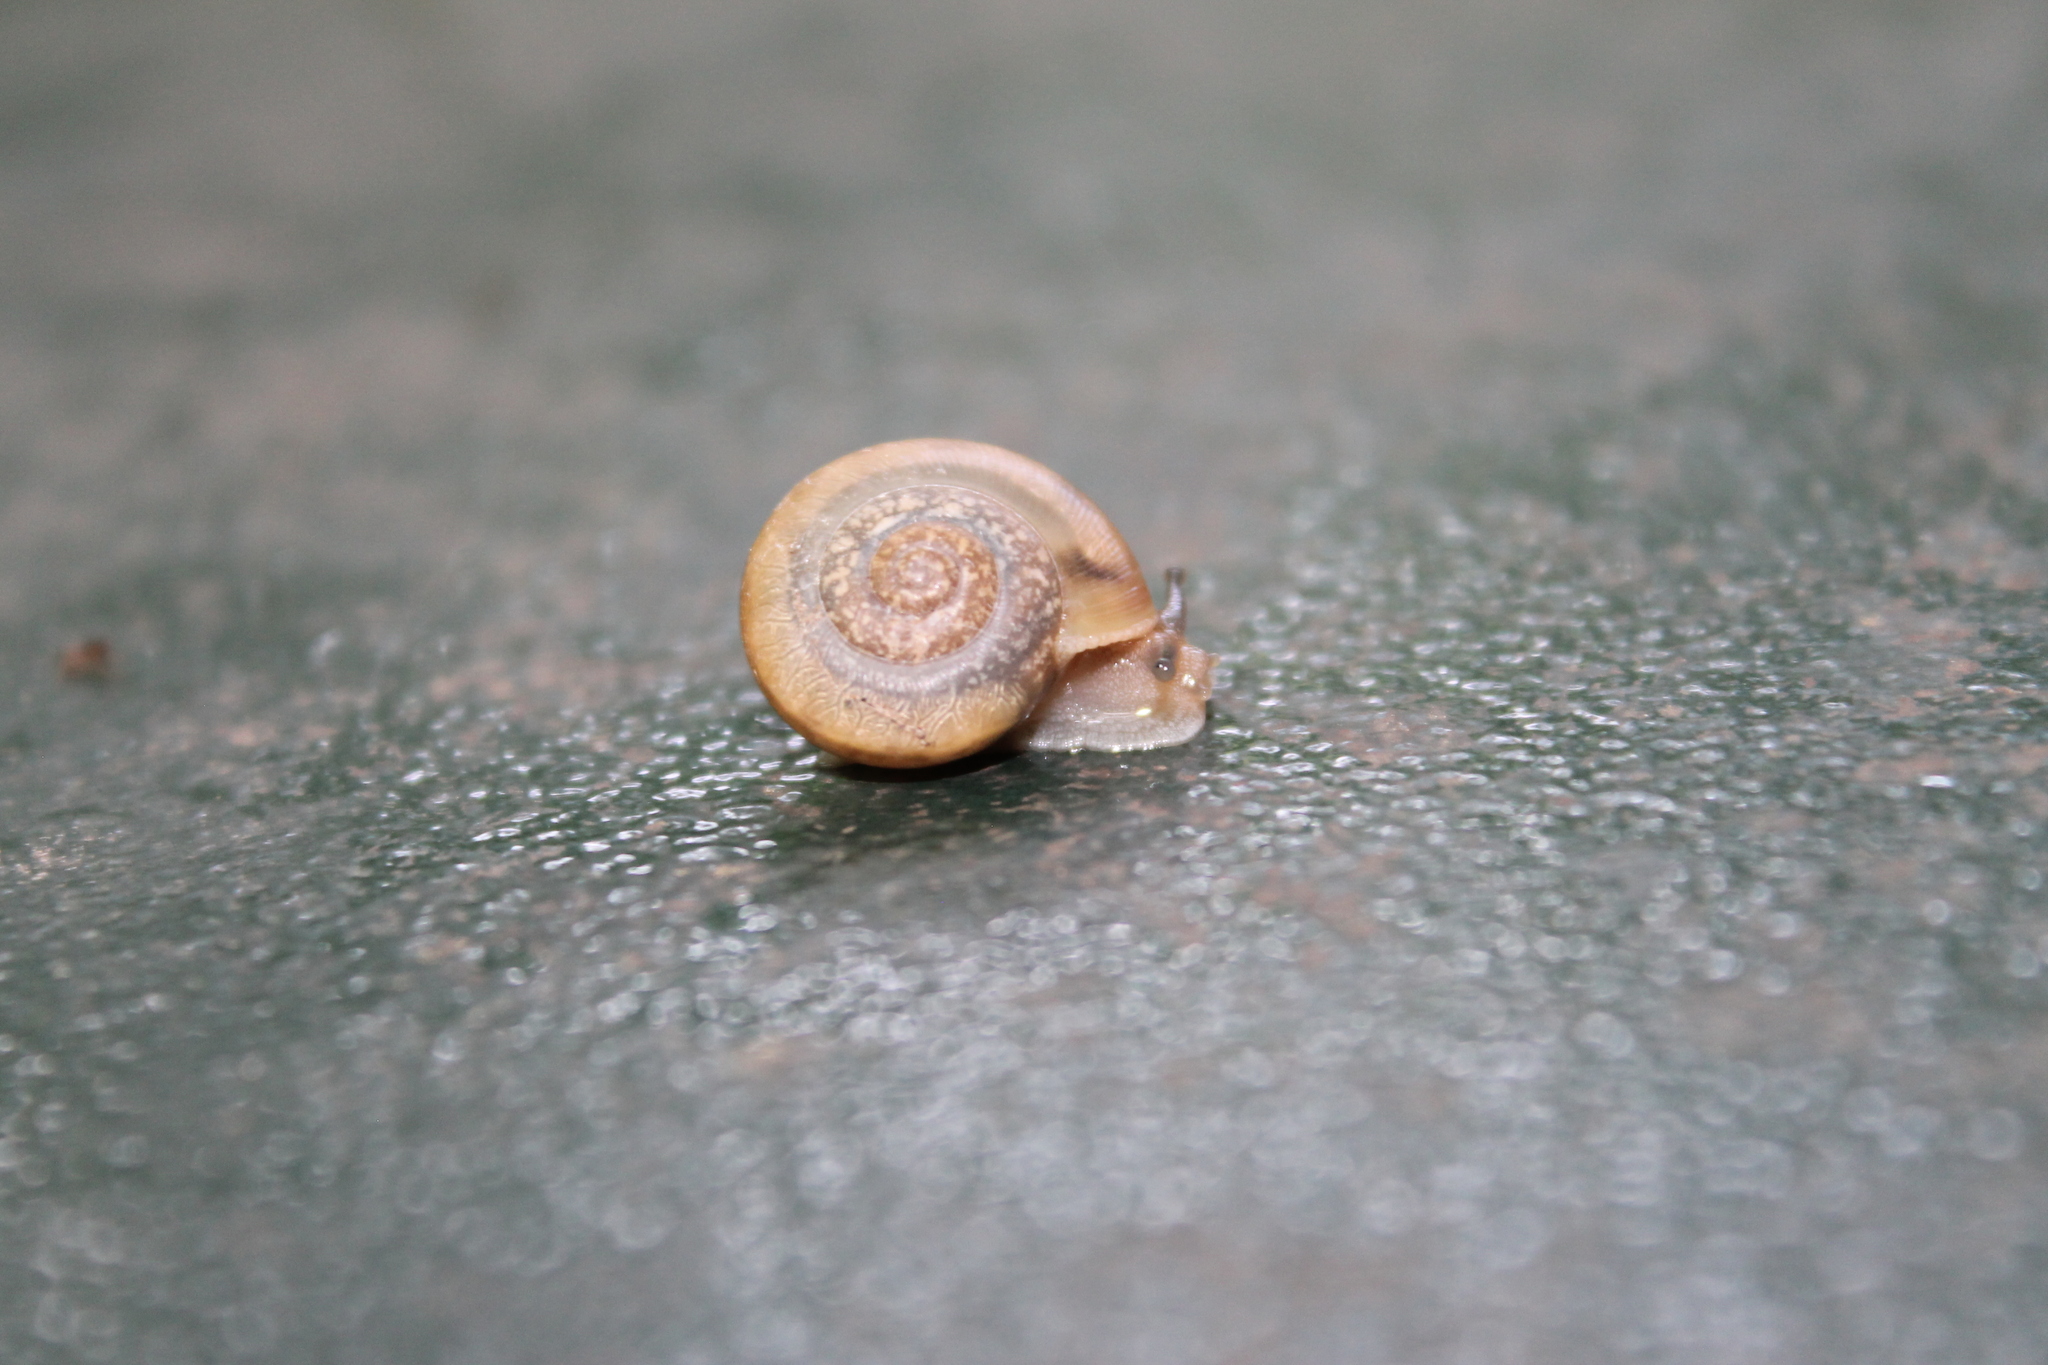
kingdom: Animalia
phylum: Mollusca
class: Gastropoda
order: Stylommatophora
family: Camaenidae
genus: Bradybaena
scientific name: Bradybaena similaris
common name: Asian trampsnail
